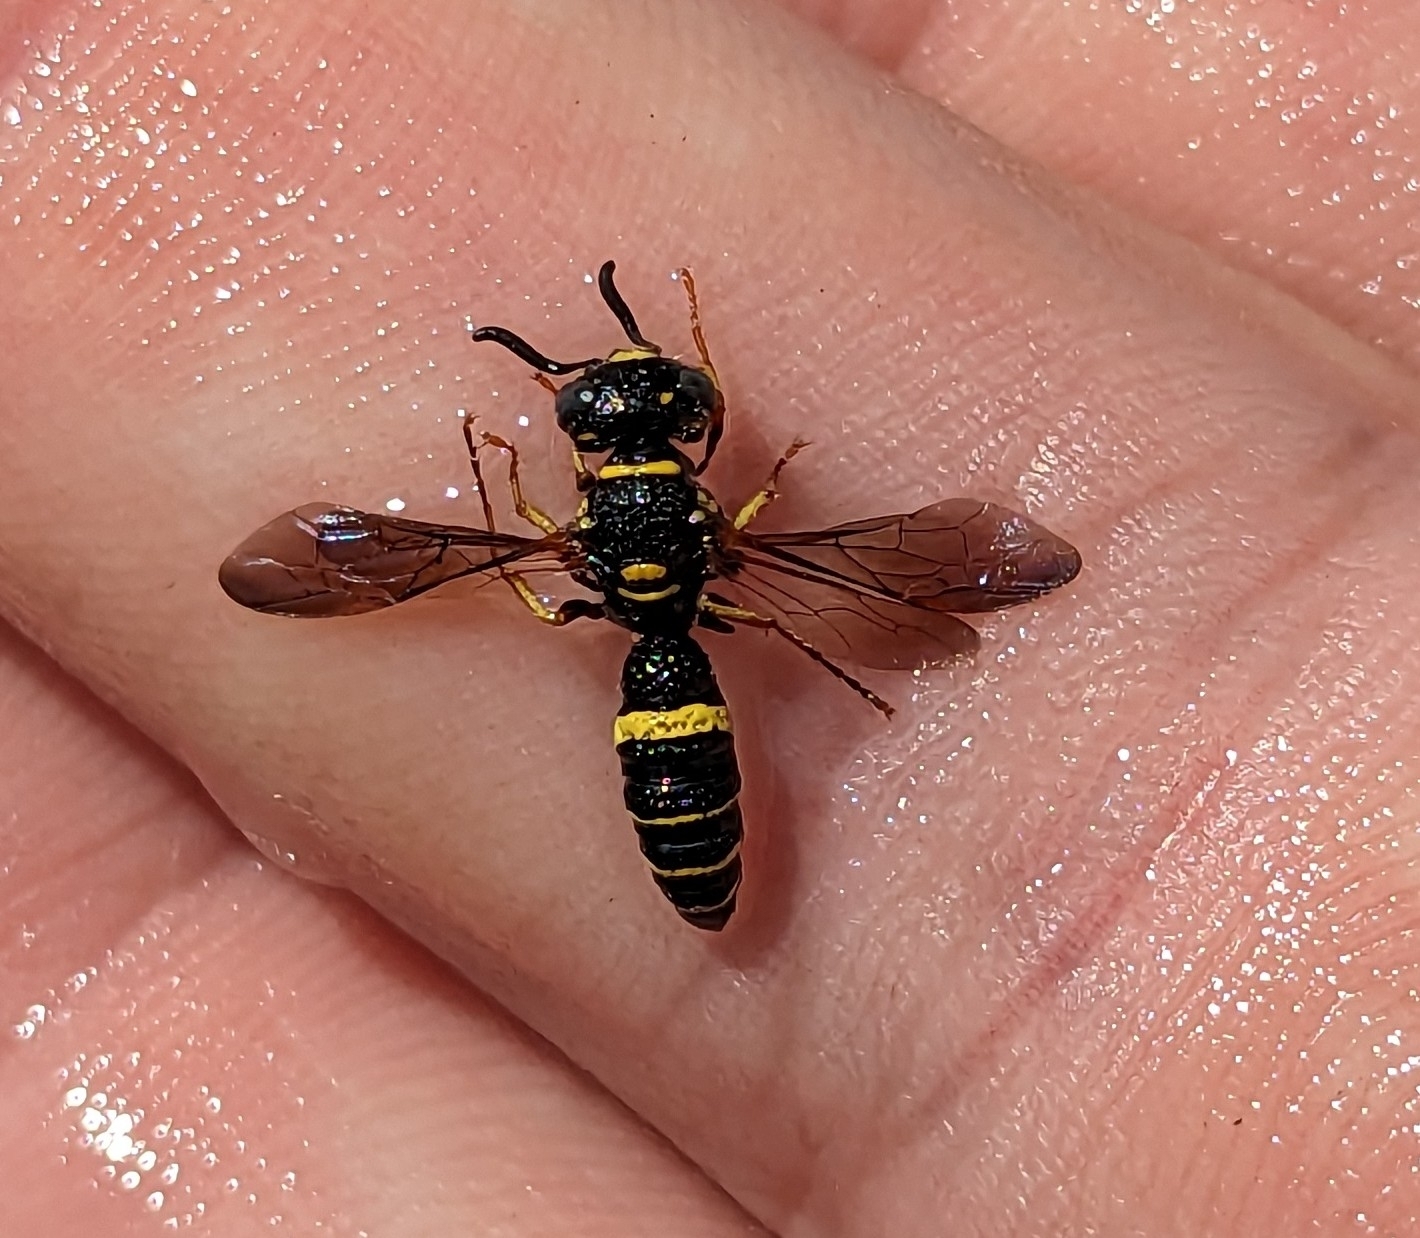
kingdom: Animalia
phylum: Arthropoda
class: Insecta
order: Hymenoptera
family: Crabronidae
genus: Philanthus
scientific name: Philanthus gibbosus
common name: Humped beewolf
